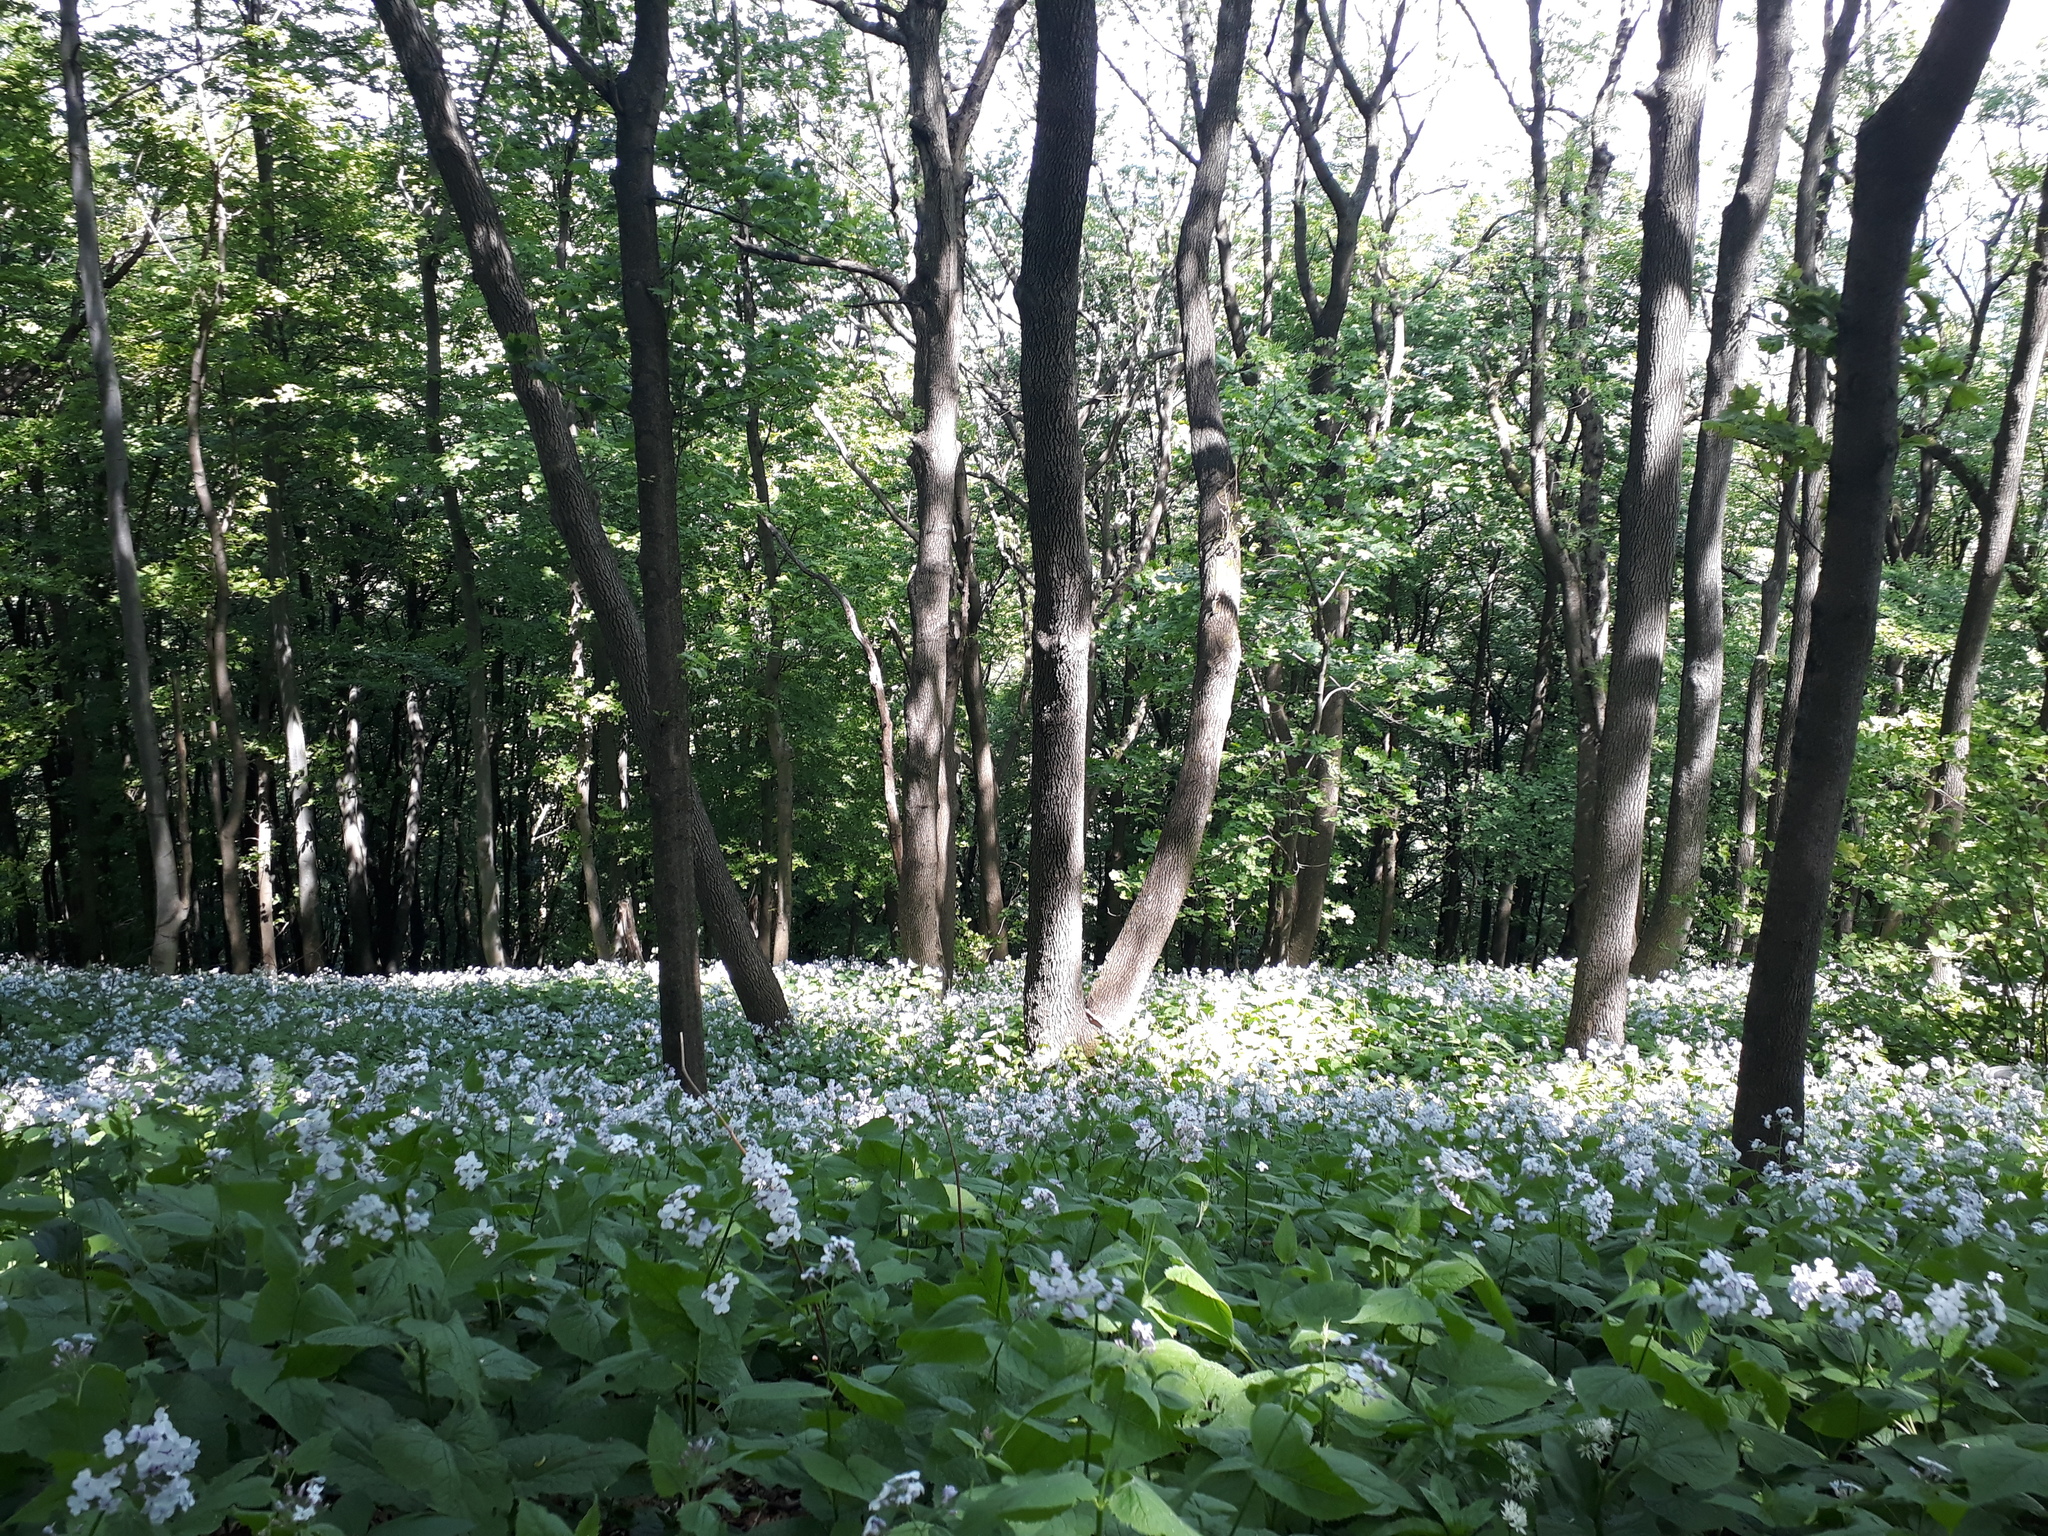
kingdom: Plantae
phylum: Tracheophyta
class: Magnoliopsida
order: Brassicales
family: Brassicaceae
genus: Lunaria
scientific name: Lunaria rediviva
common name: Perennial honesty
